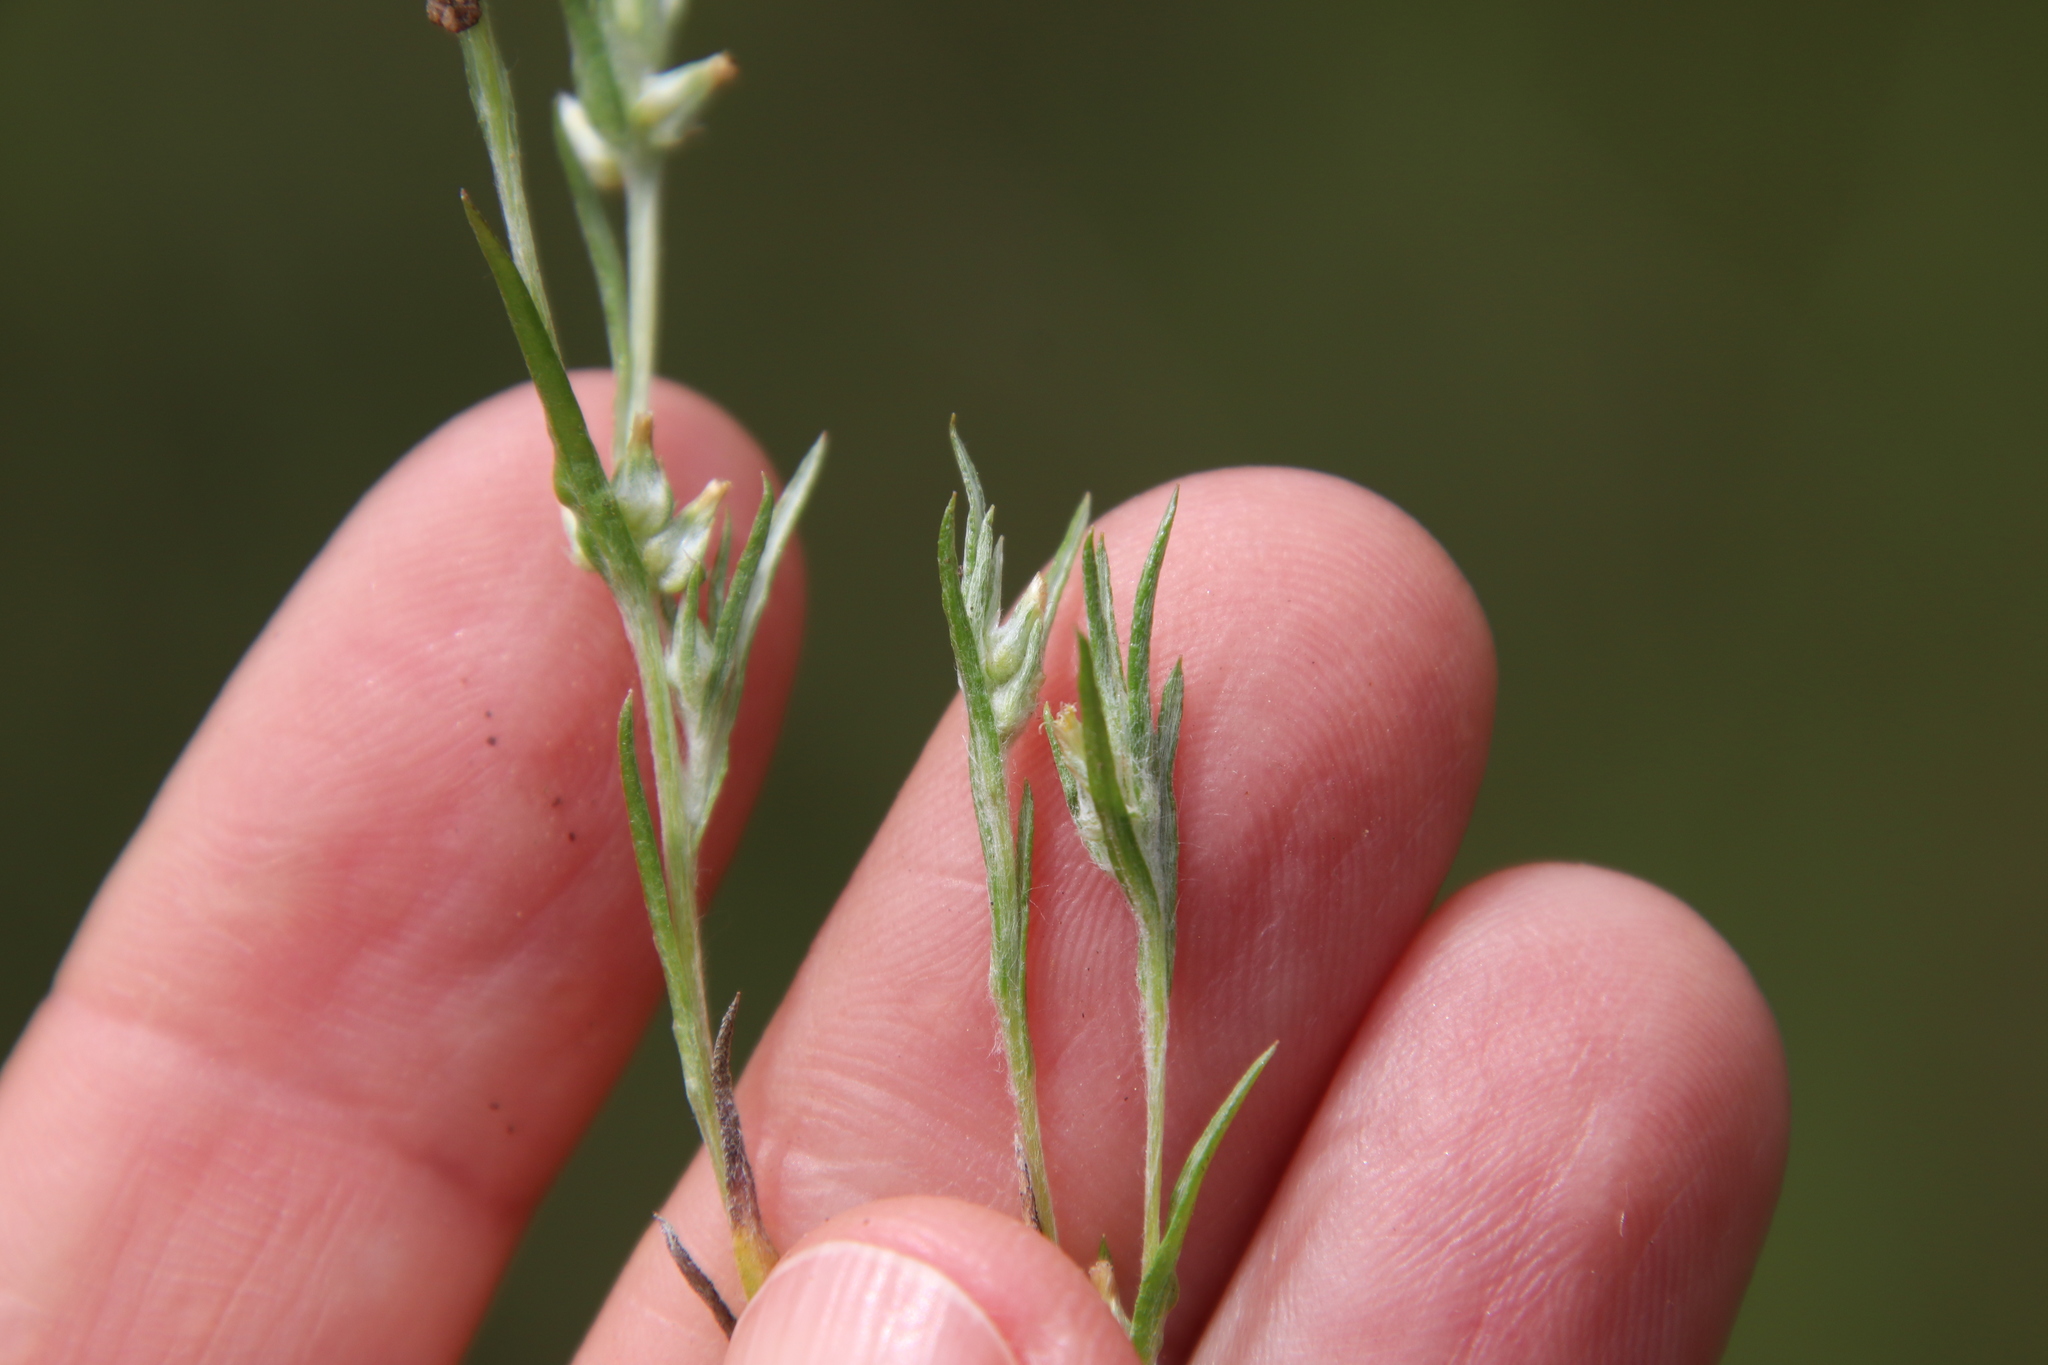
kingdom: Plantae
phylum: Tracheophyta
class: Magnoliopsida
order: Asterales
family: Asteraceae
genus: Logfia
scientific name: Logfia gallica
